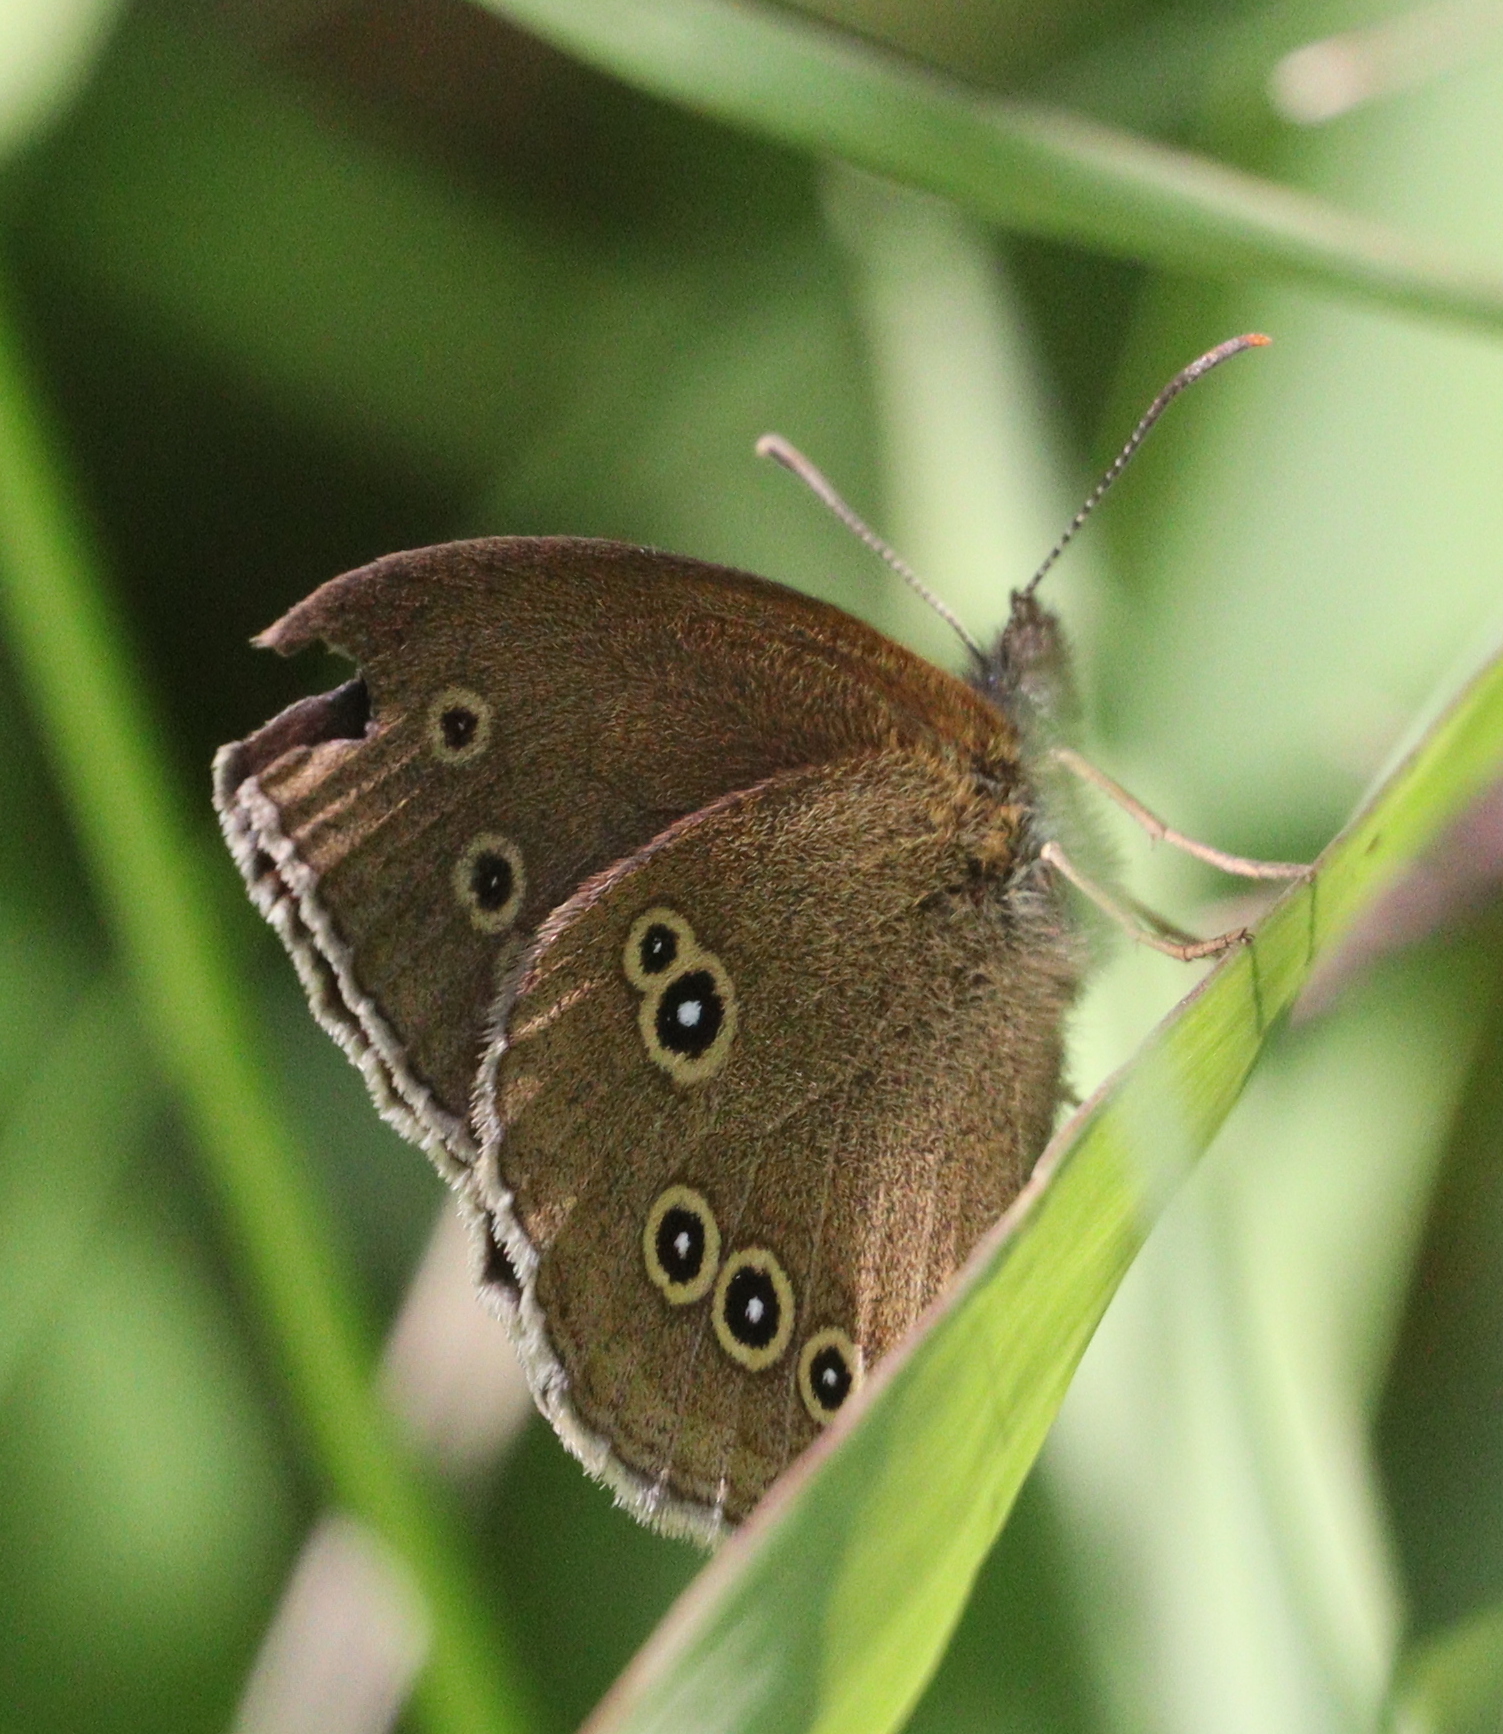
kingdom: Animalia
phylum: Arthropoda
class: Insecta
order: Lepidoptera
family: Nymphalidae
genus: Aphantopus
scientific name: Aphantopus hyperantus
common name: Ringlet
